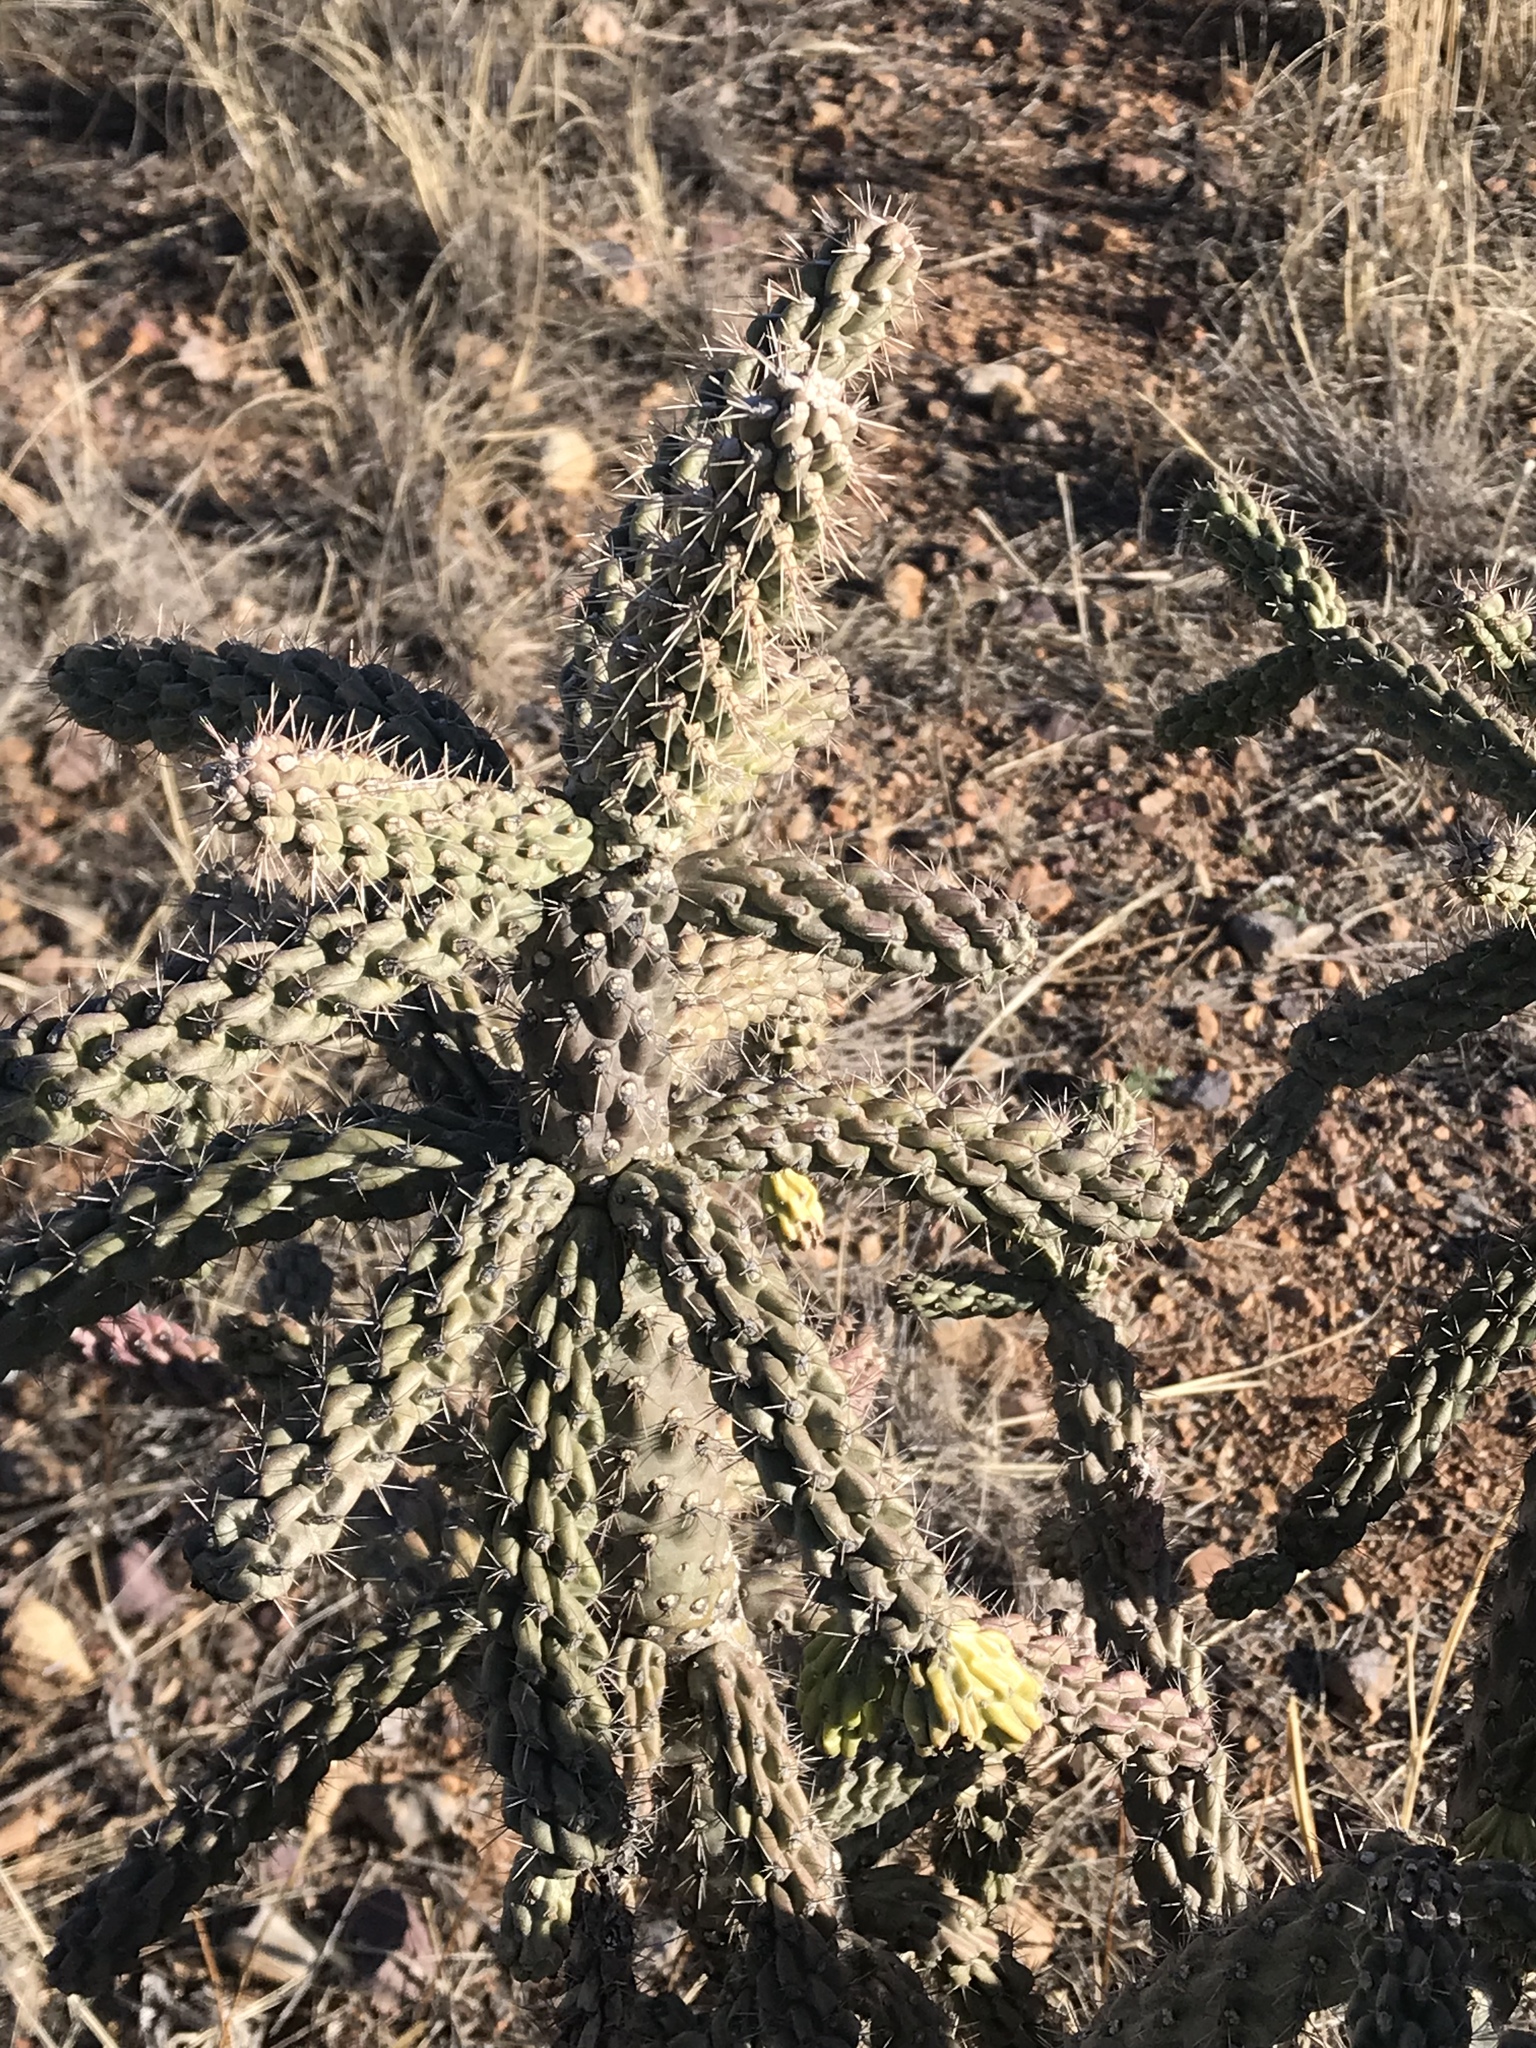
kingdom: Plantae
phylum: Tracheophyta
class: Magnoliopsida
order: Caryophyllales
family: Cactaceae
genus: Cylindropuntia
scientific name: Cylindropuntia fulgida
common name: Jumping cholla
